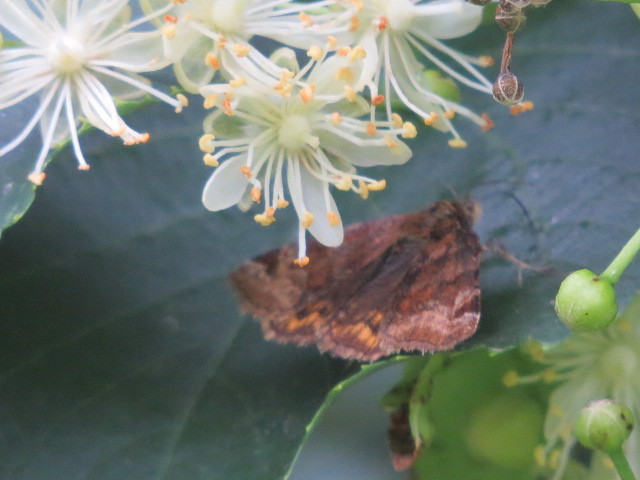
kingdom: Animalia
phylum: Arthropoda
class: Insecta
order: Lepidoptera
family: Erebidae
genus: Euclidia
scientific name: Euclidia glyphica
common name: Burnet companion
